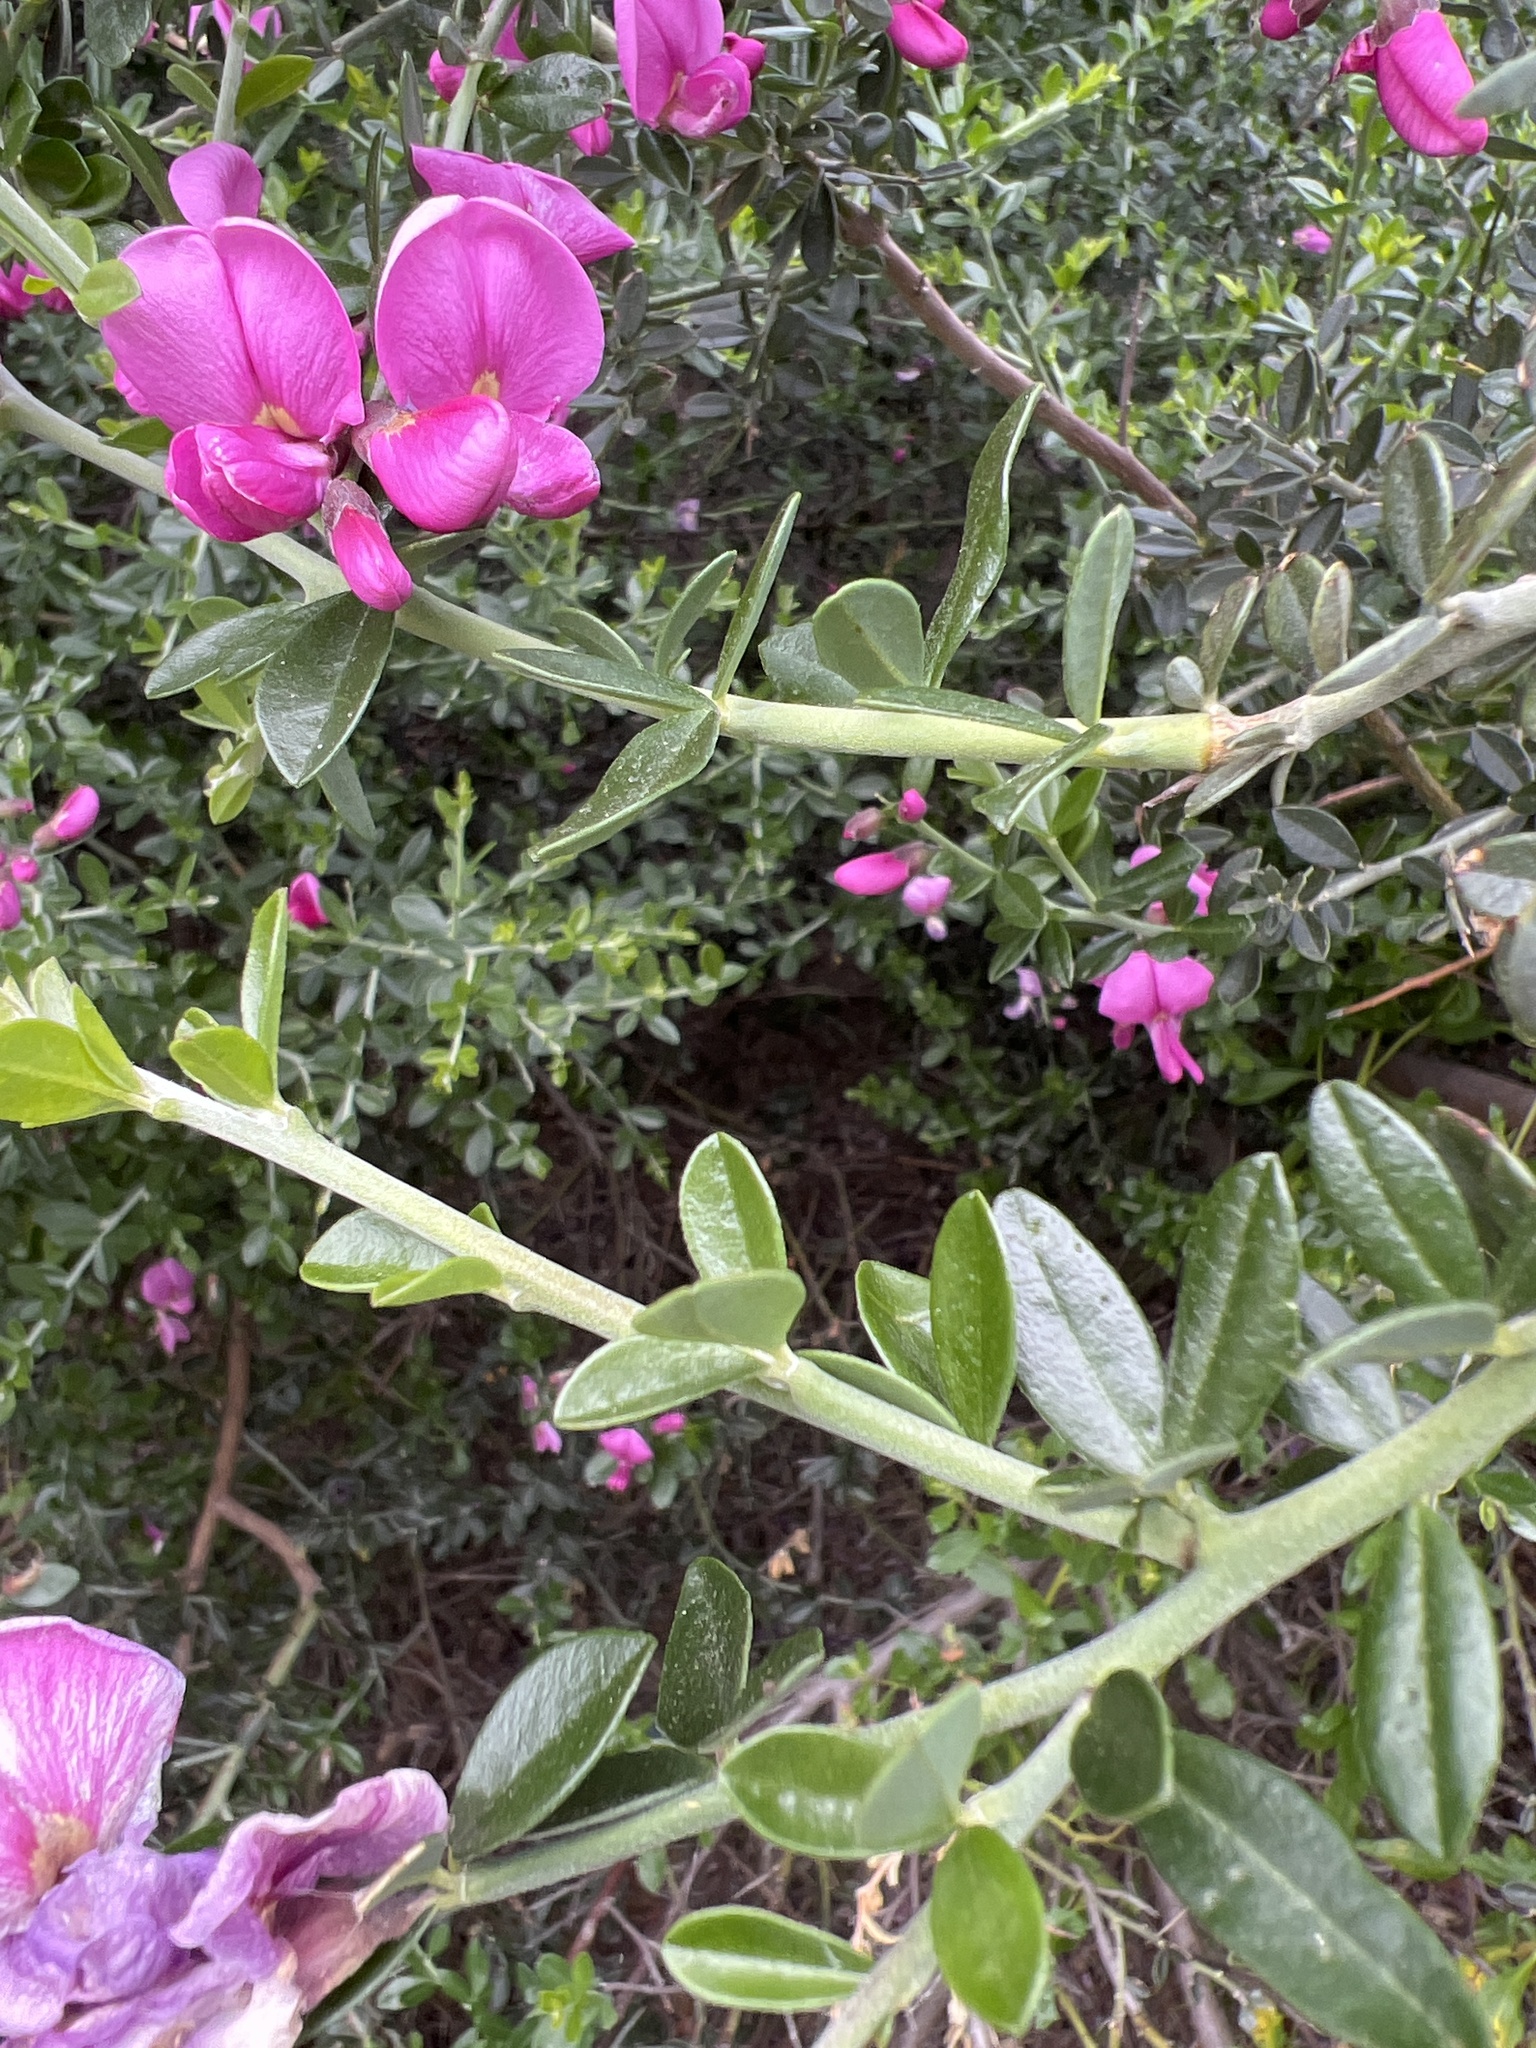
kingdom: Plantae
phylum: Tracheophyta
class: Magnoliopsida
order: Fabales
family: Fabaceae
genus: Pickeringia
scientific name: Pickeringia montana
